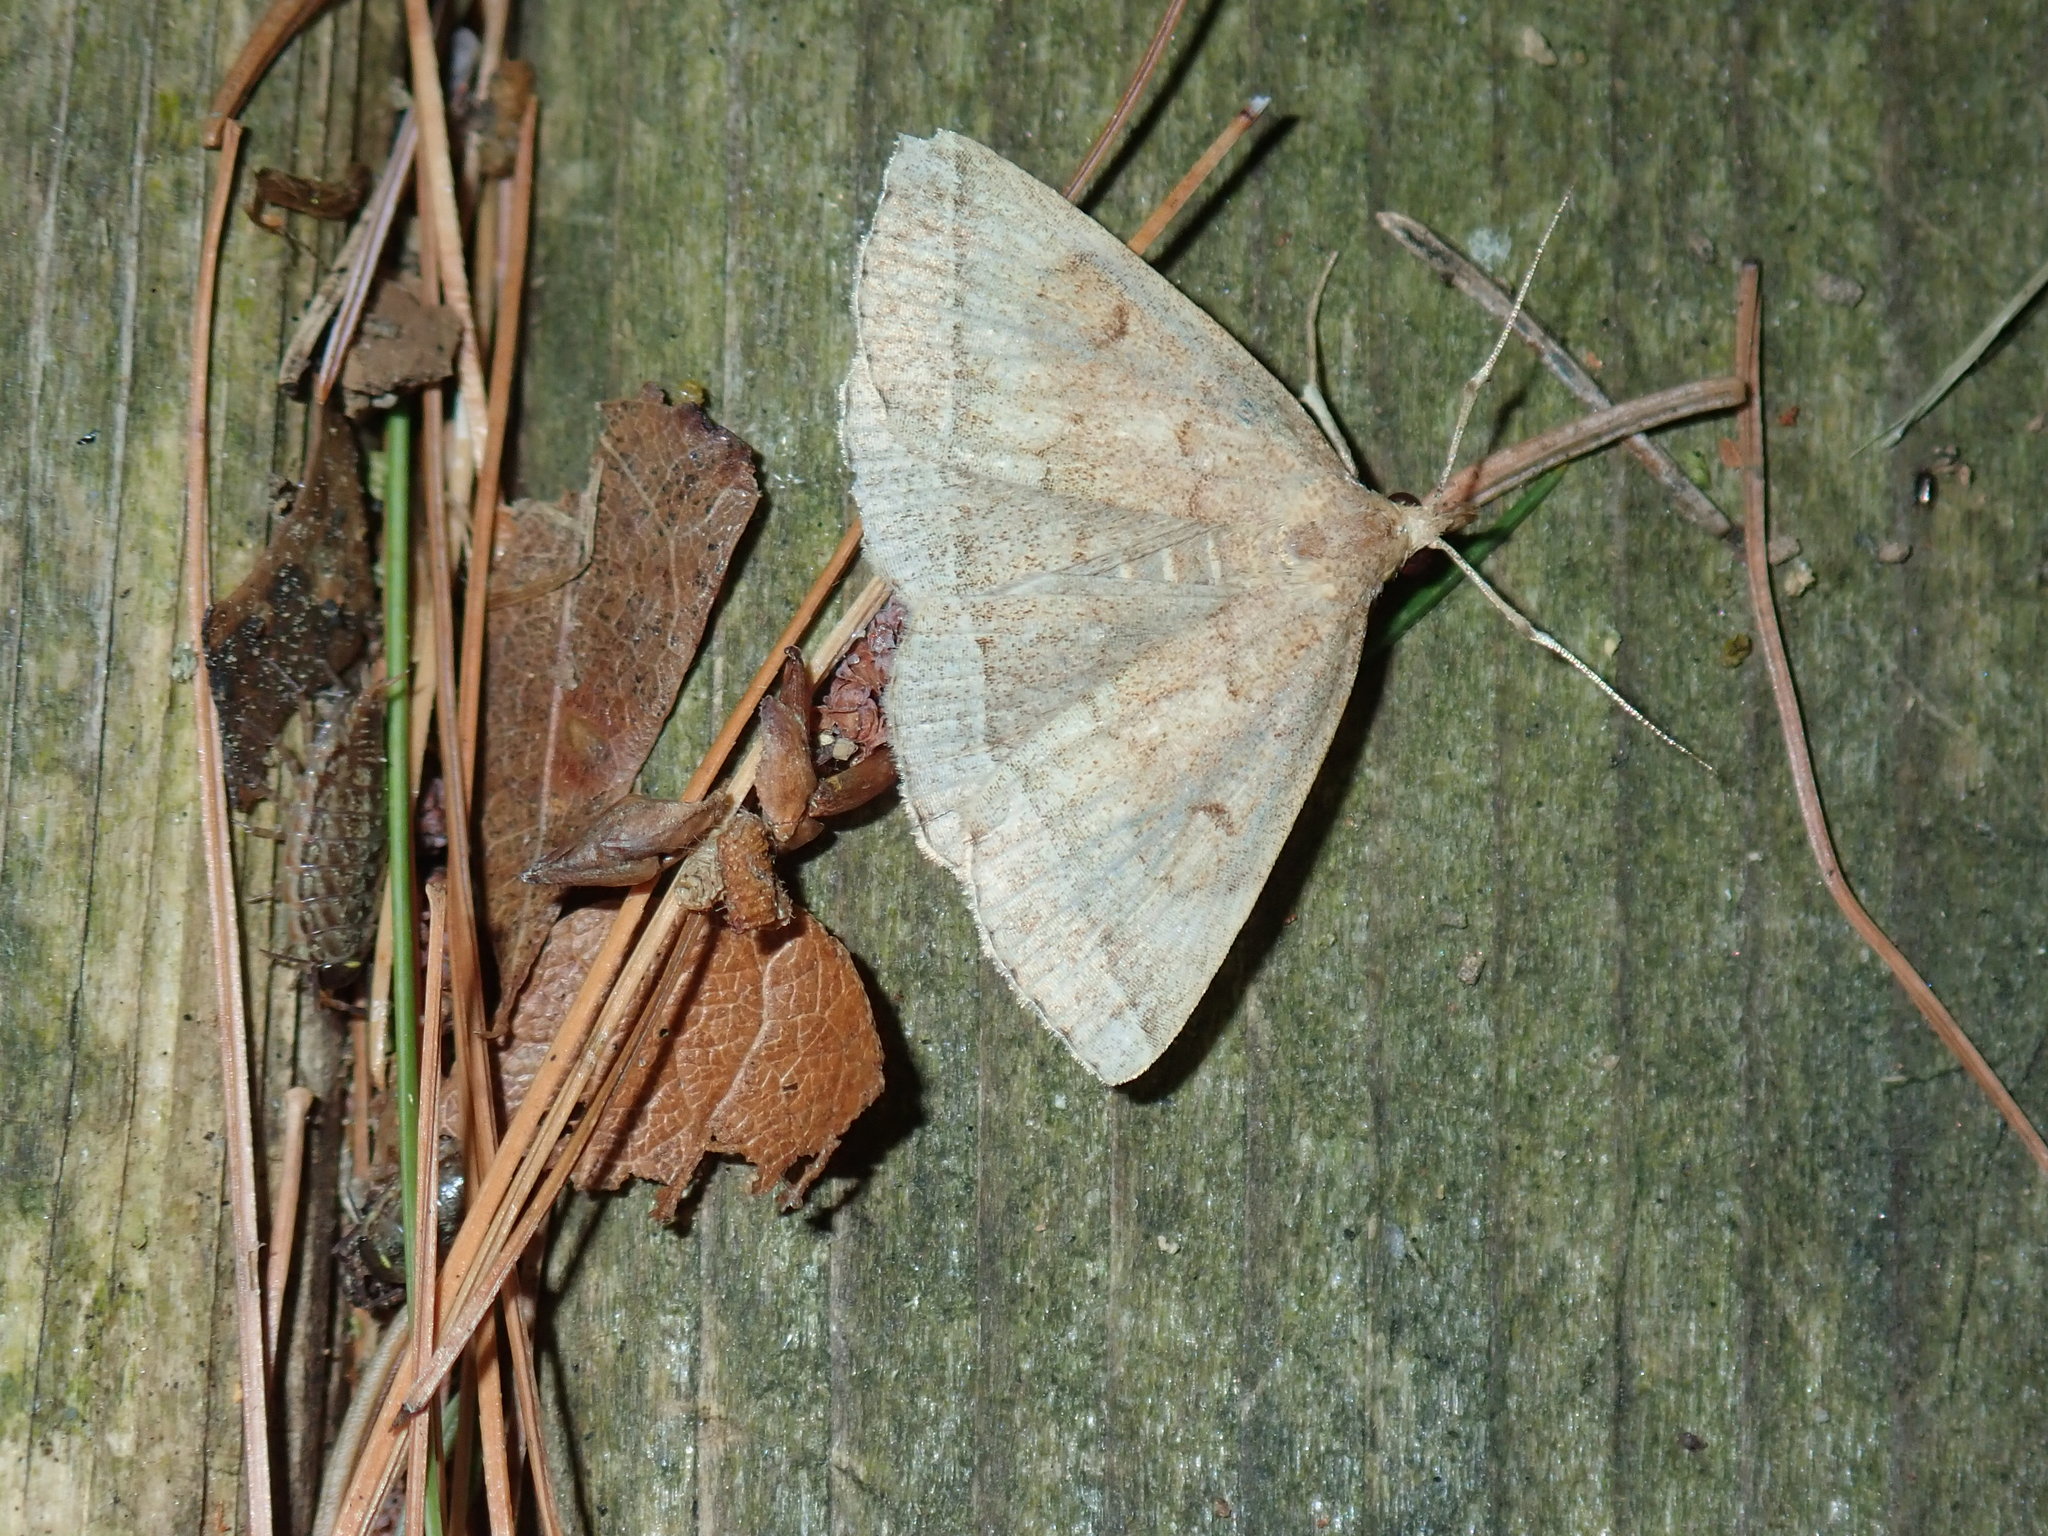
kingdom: Animalia
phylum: Arthropoda
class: Insecta
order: Lepidoptera
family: Erebidae
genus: Zanclognatha
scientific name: Zanclognatha jacchusalis
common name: Yellowish zanclognatha
